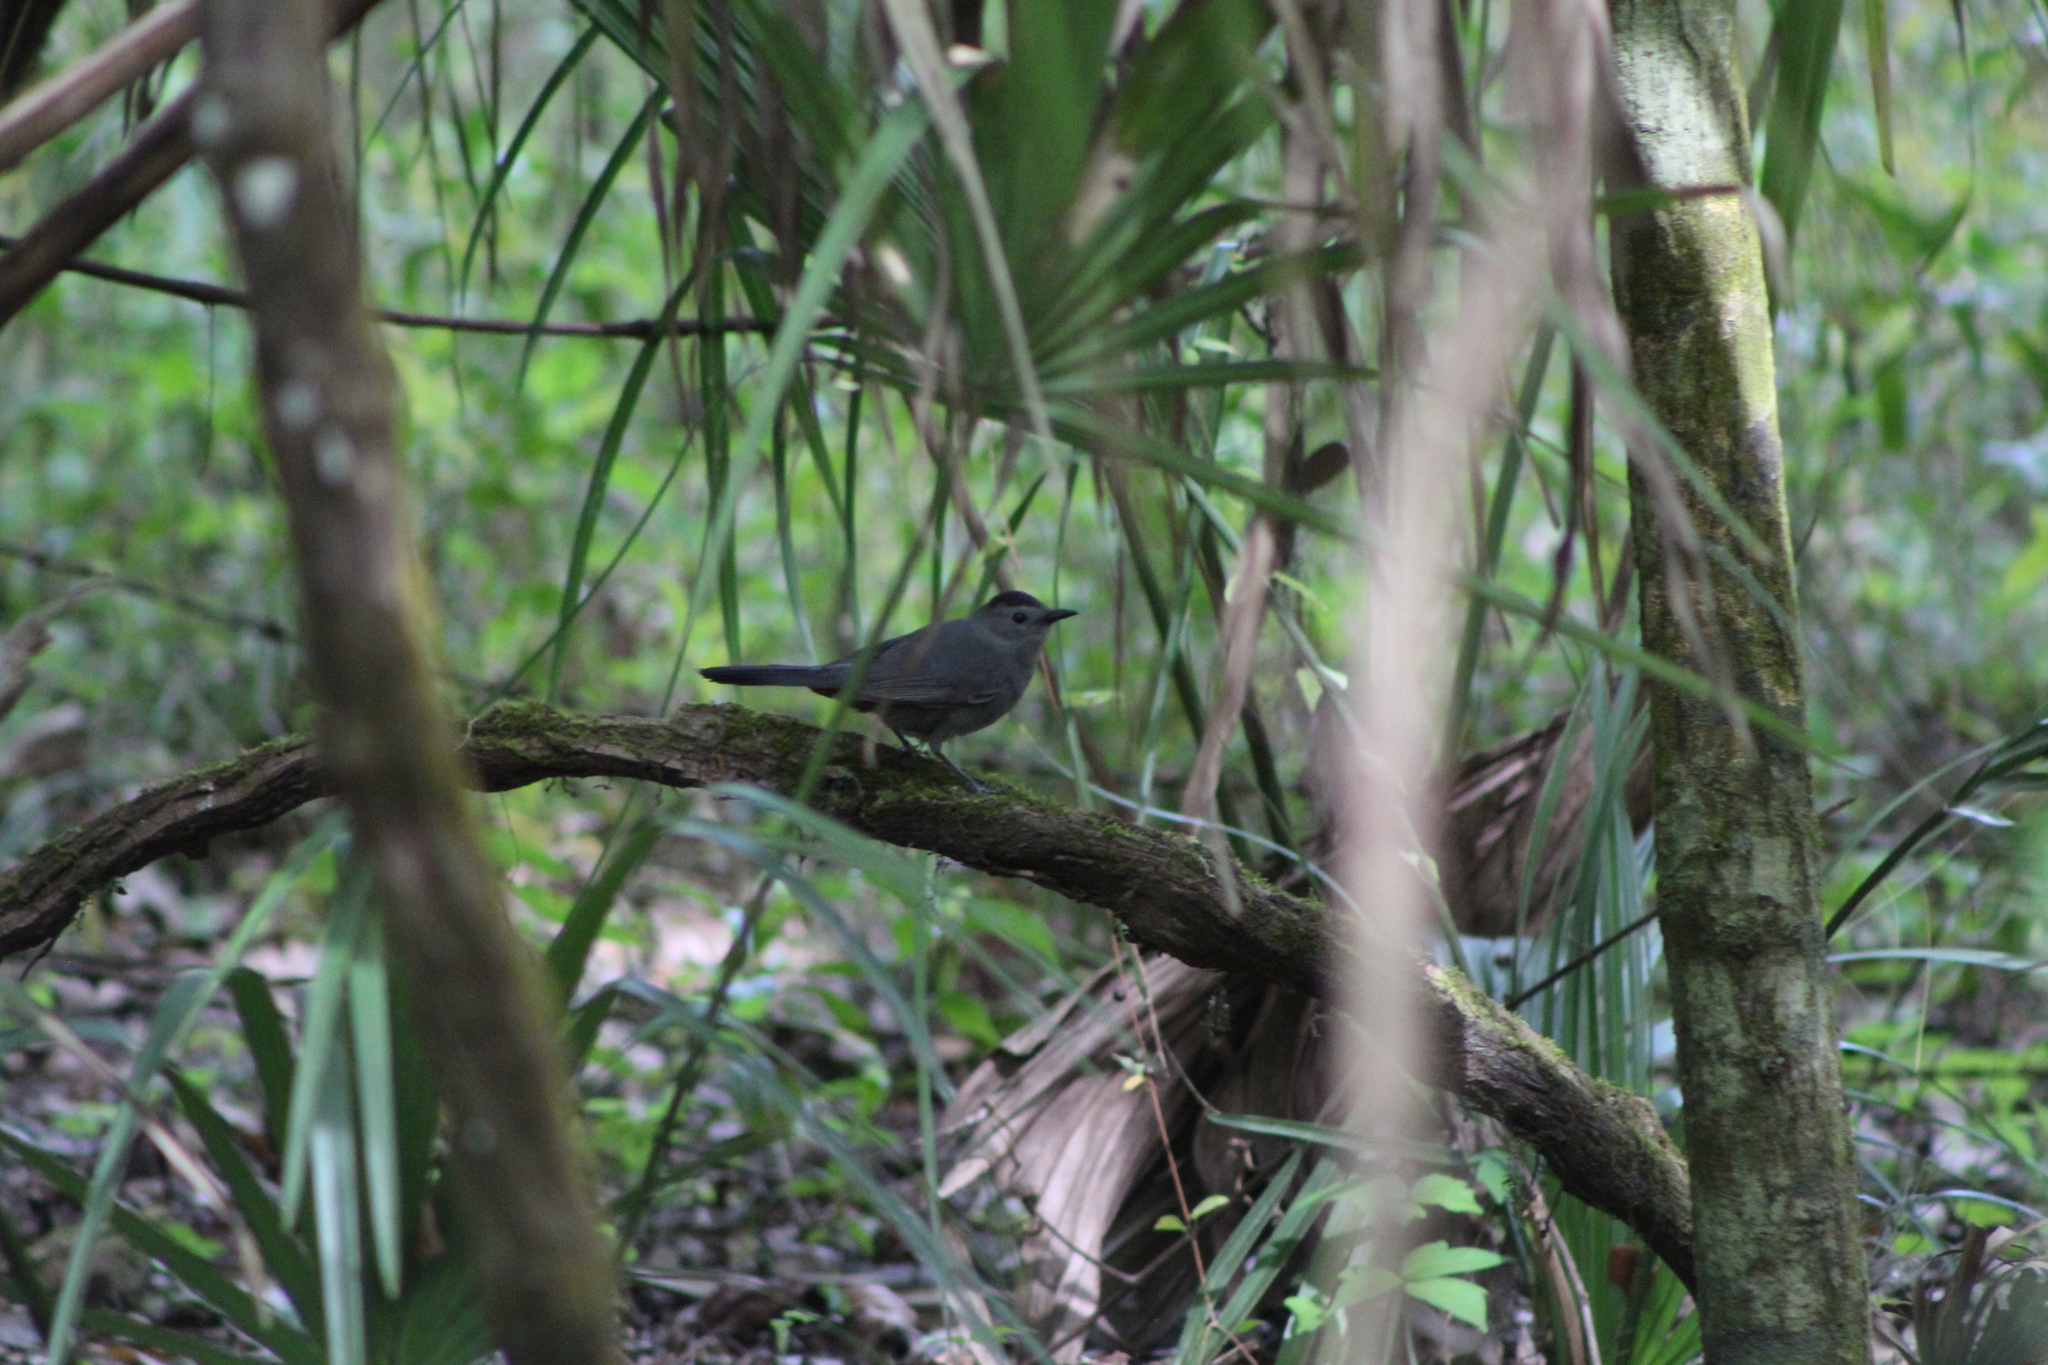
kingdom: Animalia
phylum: Chordata
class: Aves
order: Passeriformes
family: Mimidae
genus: Dumetella
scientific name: Dumetella carolinensis
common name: Gray catbird
